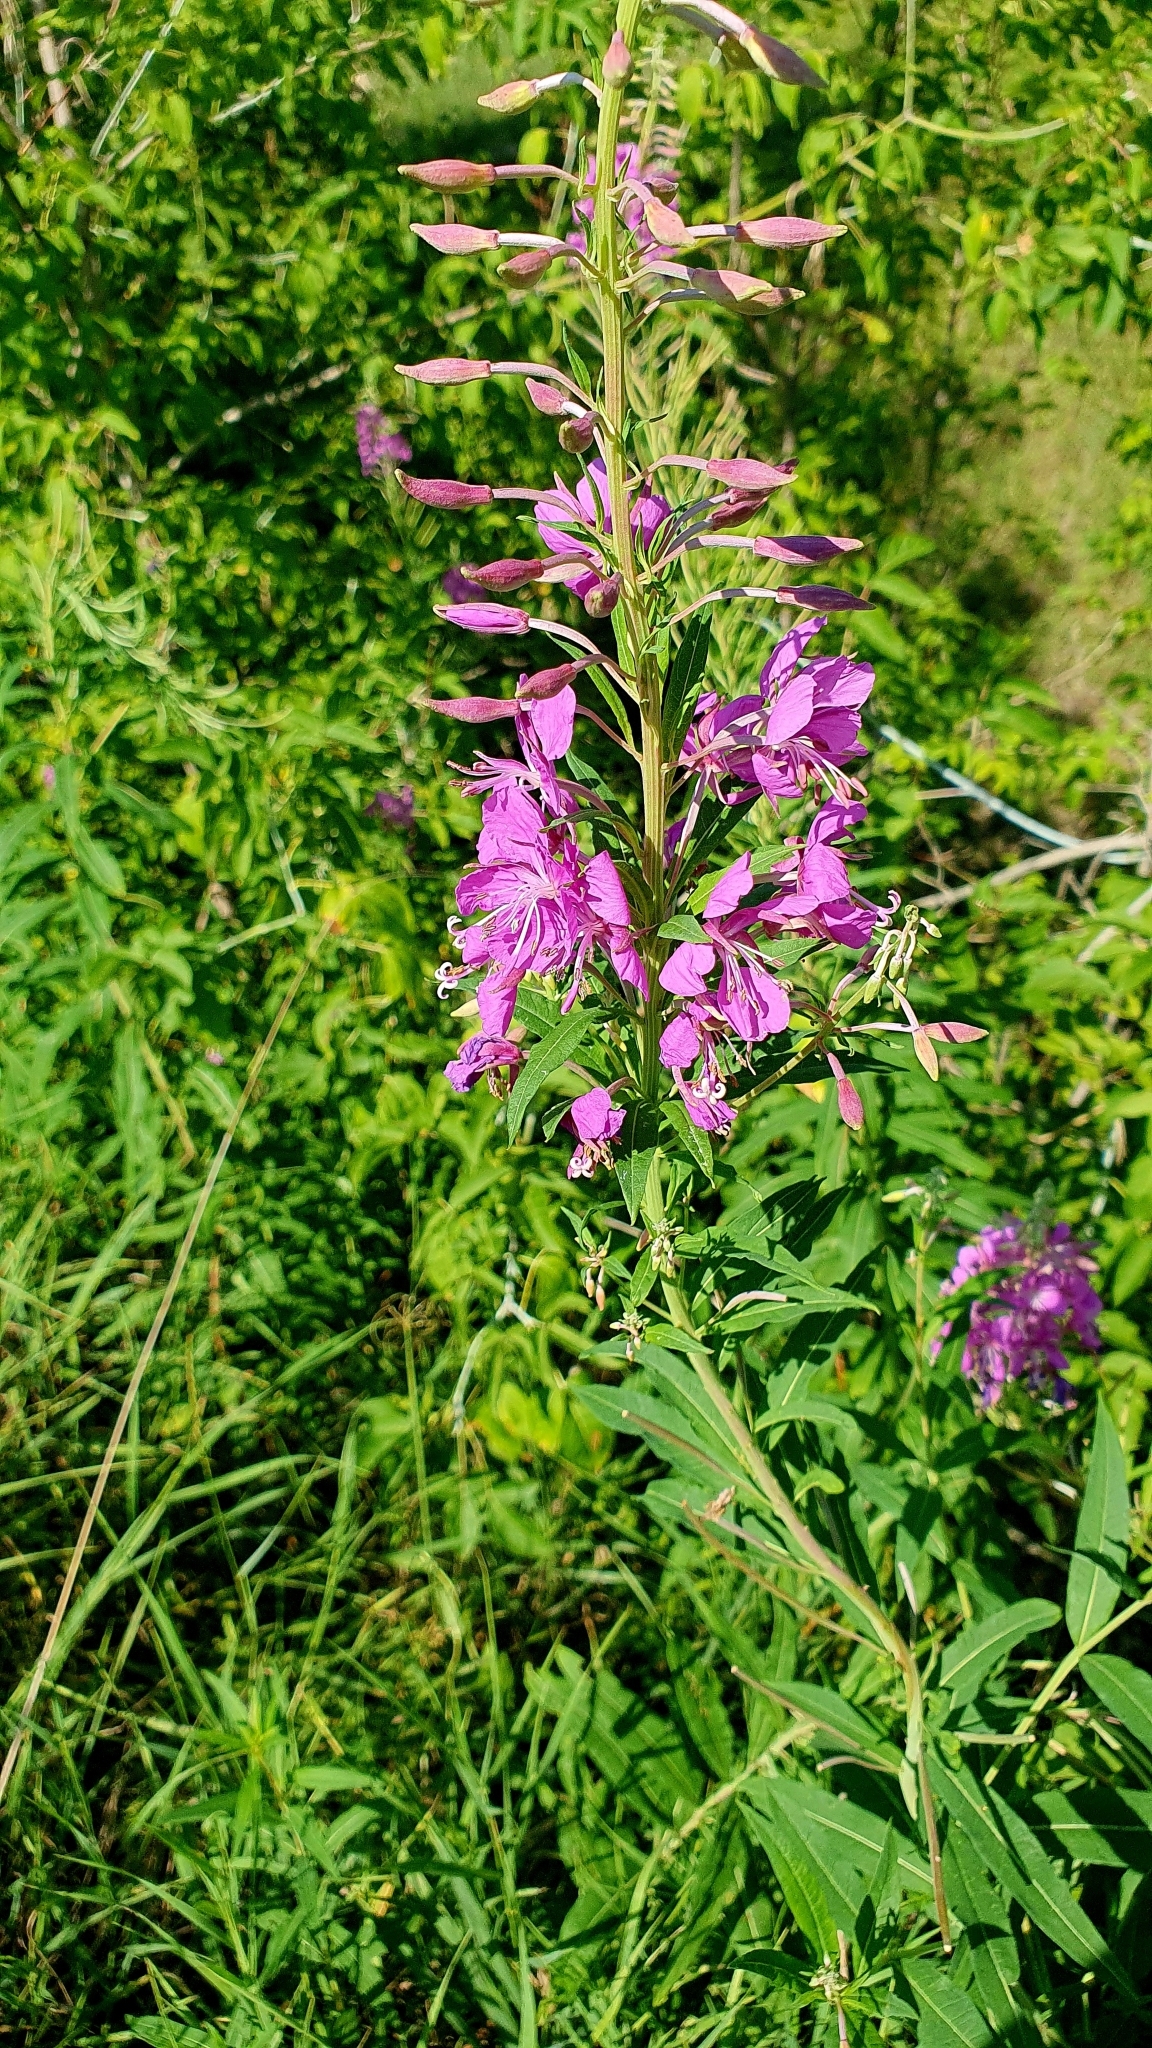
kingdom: Plantae
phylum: Tracheophyta
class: Magnoliopsida
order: Myrtales
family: Onagraceae
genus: Chamaenerion
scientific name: Chamaenerion angustifolium
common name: Fireweed
